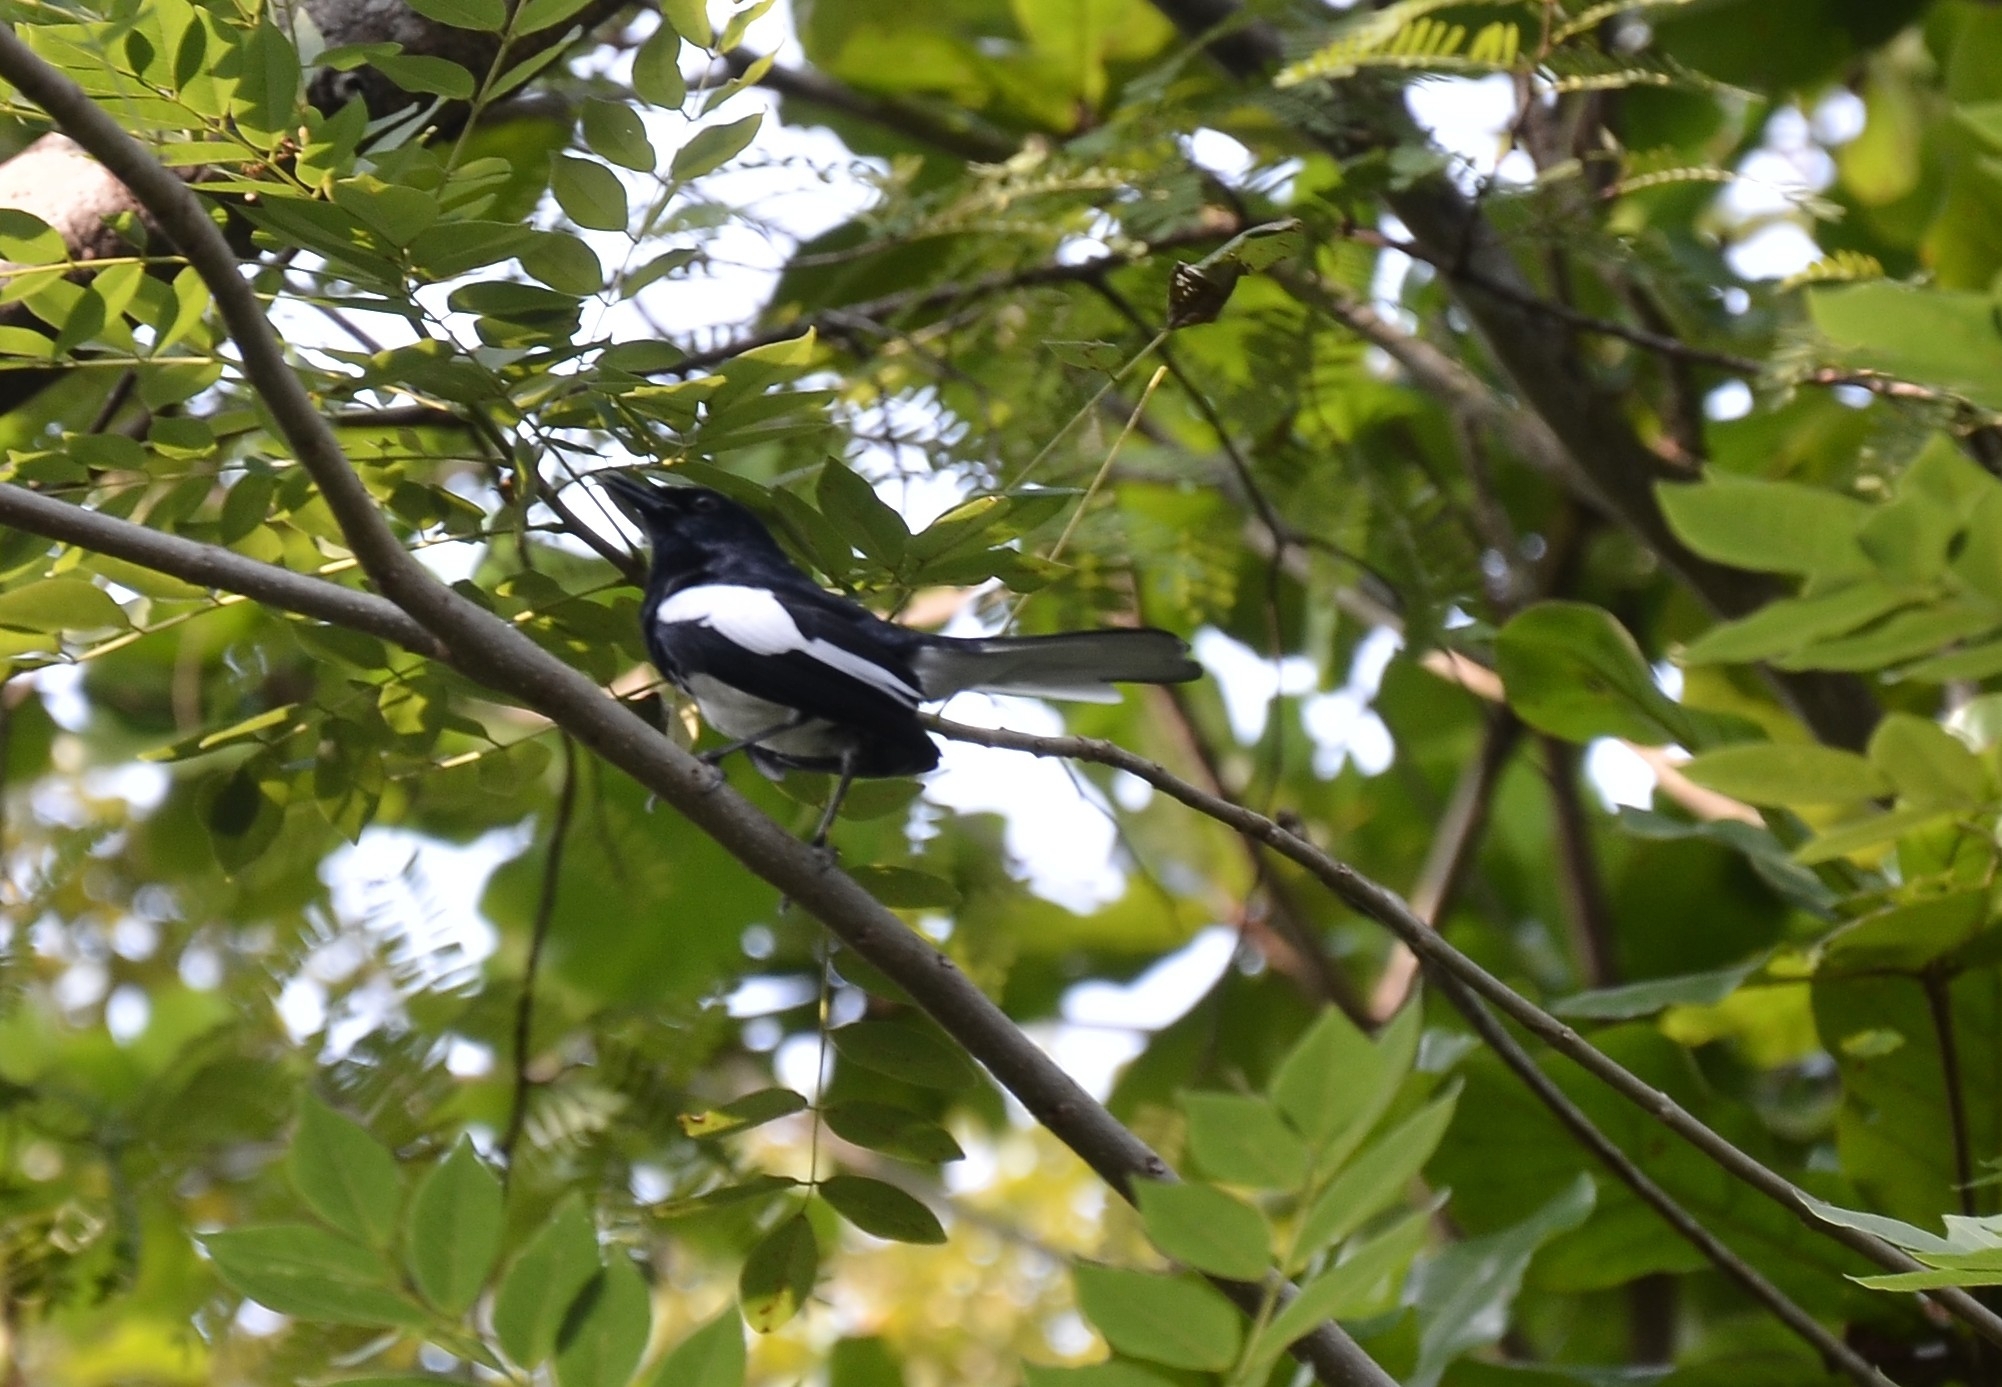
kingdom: Animalia
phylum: Chordata
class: Aves
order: Passeriformes
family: Muscicapidae
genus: Copsychus
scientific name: Copsychus saularis
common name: Oriental magpie-robin
